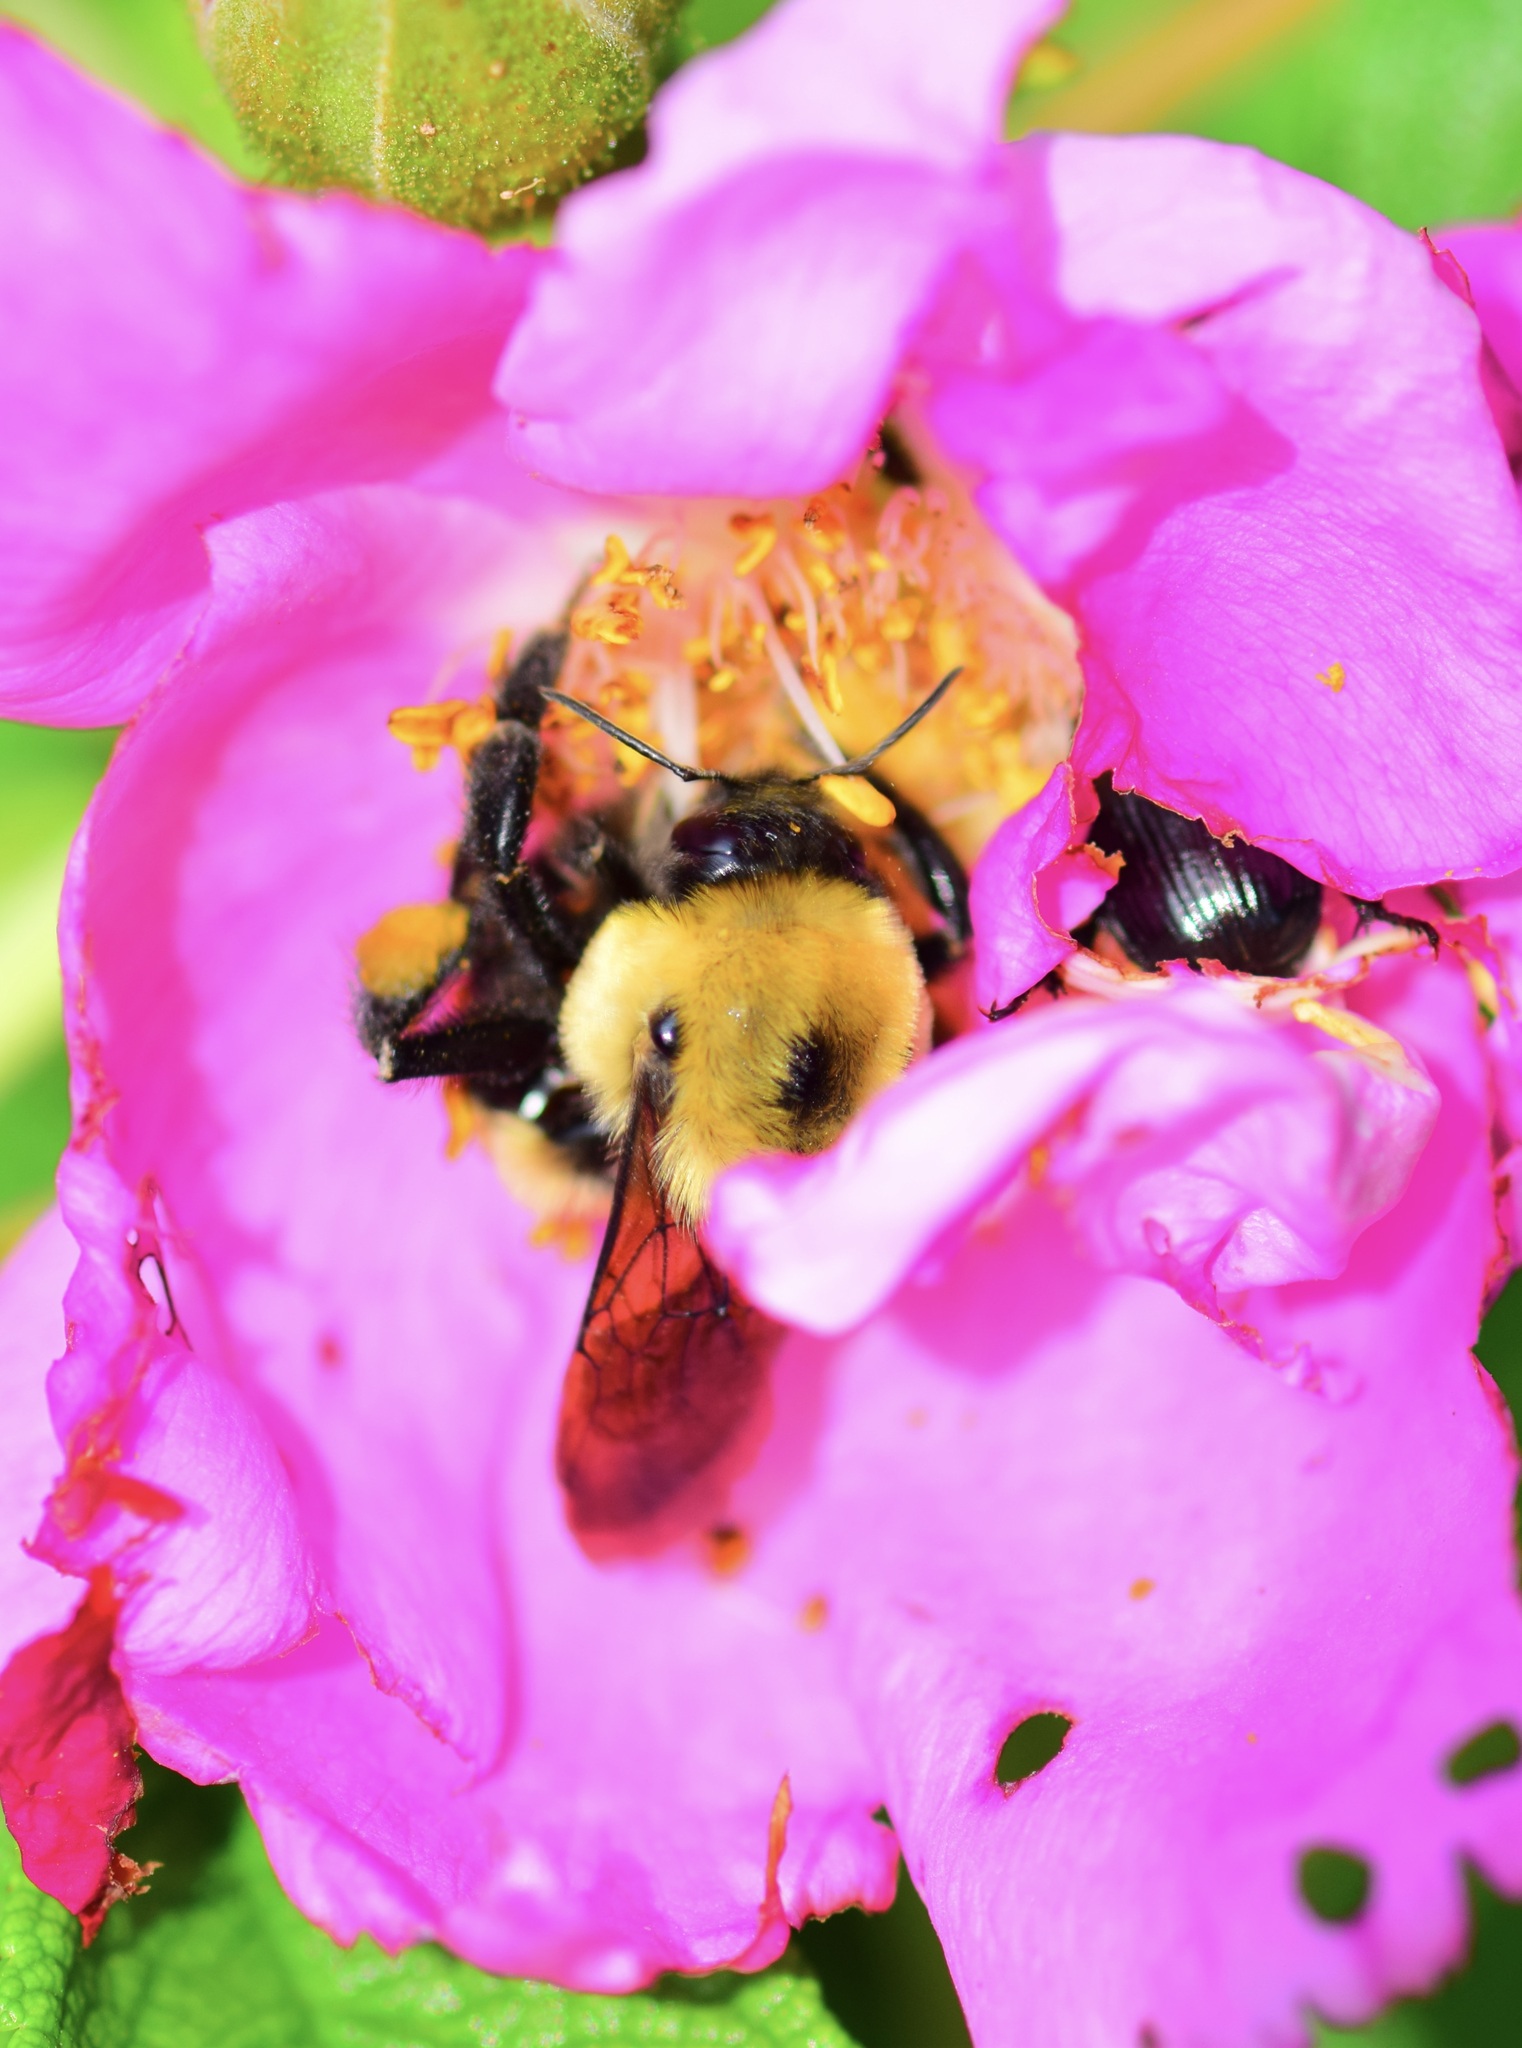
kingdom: Animalia
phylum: Arthropoda
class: Insecta
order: Hymenoptera
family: Apidae
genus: Bombus
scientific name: Bombus griseocollis
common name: Brown-belted bumble bee
